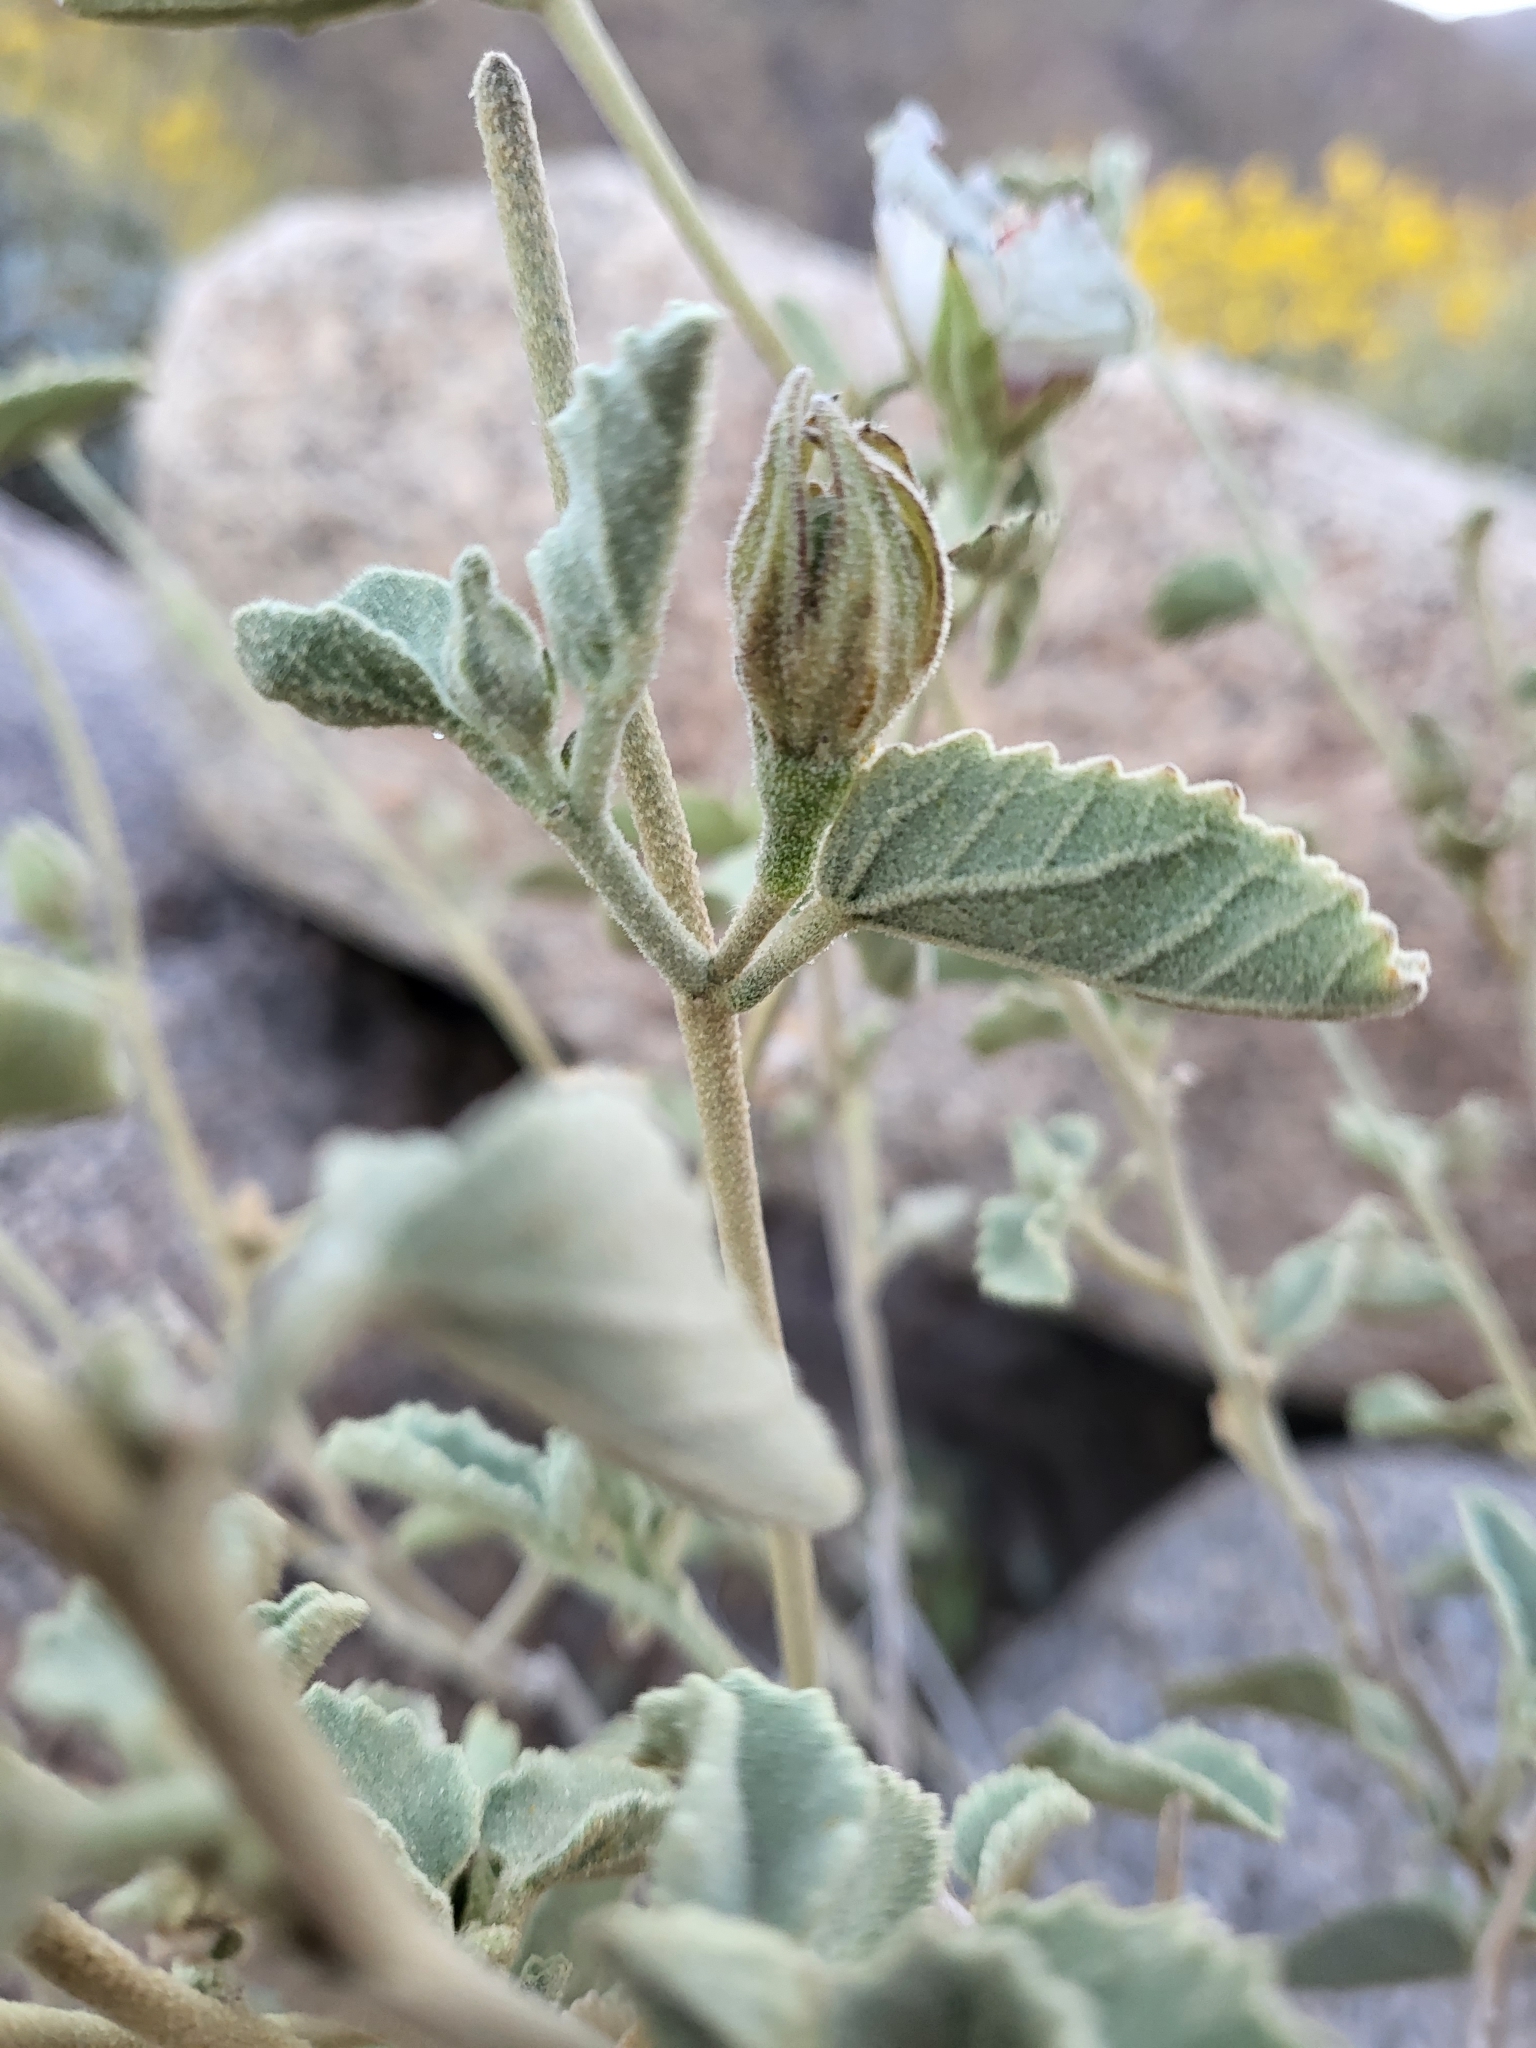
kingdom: Plantae
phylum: Tracheophyta
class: Magnoliopsida
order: Malvales
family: Malvaceae
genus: Hibiscus
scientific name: Hibiscus denudatus
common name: Paleface
